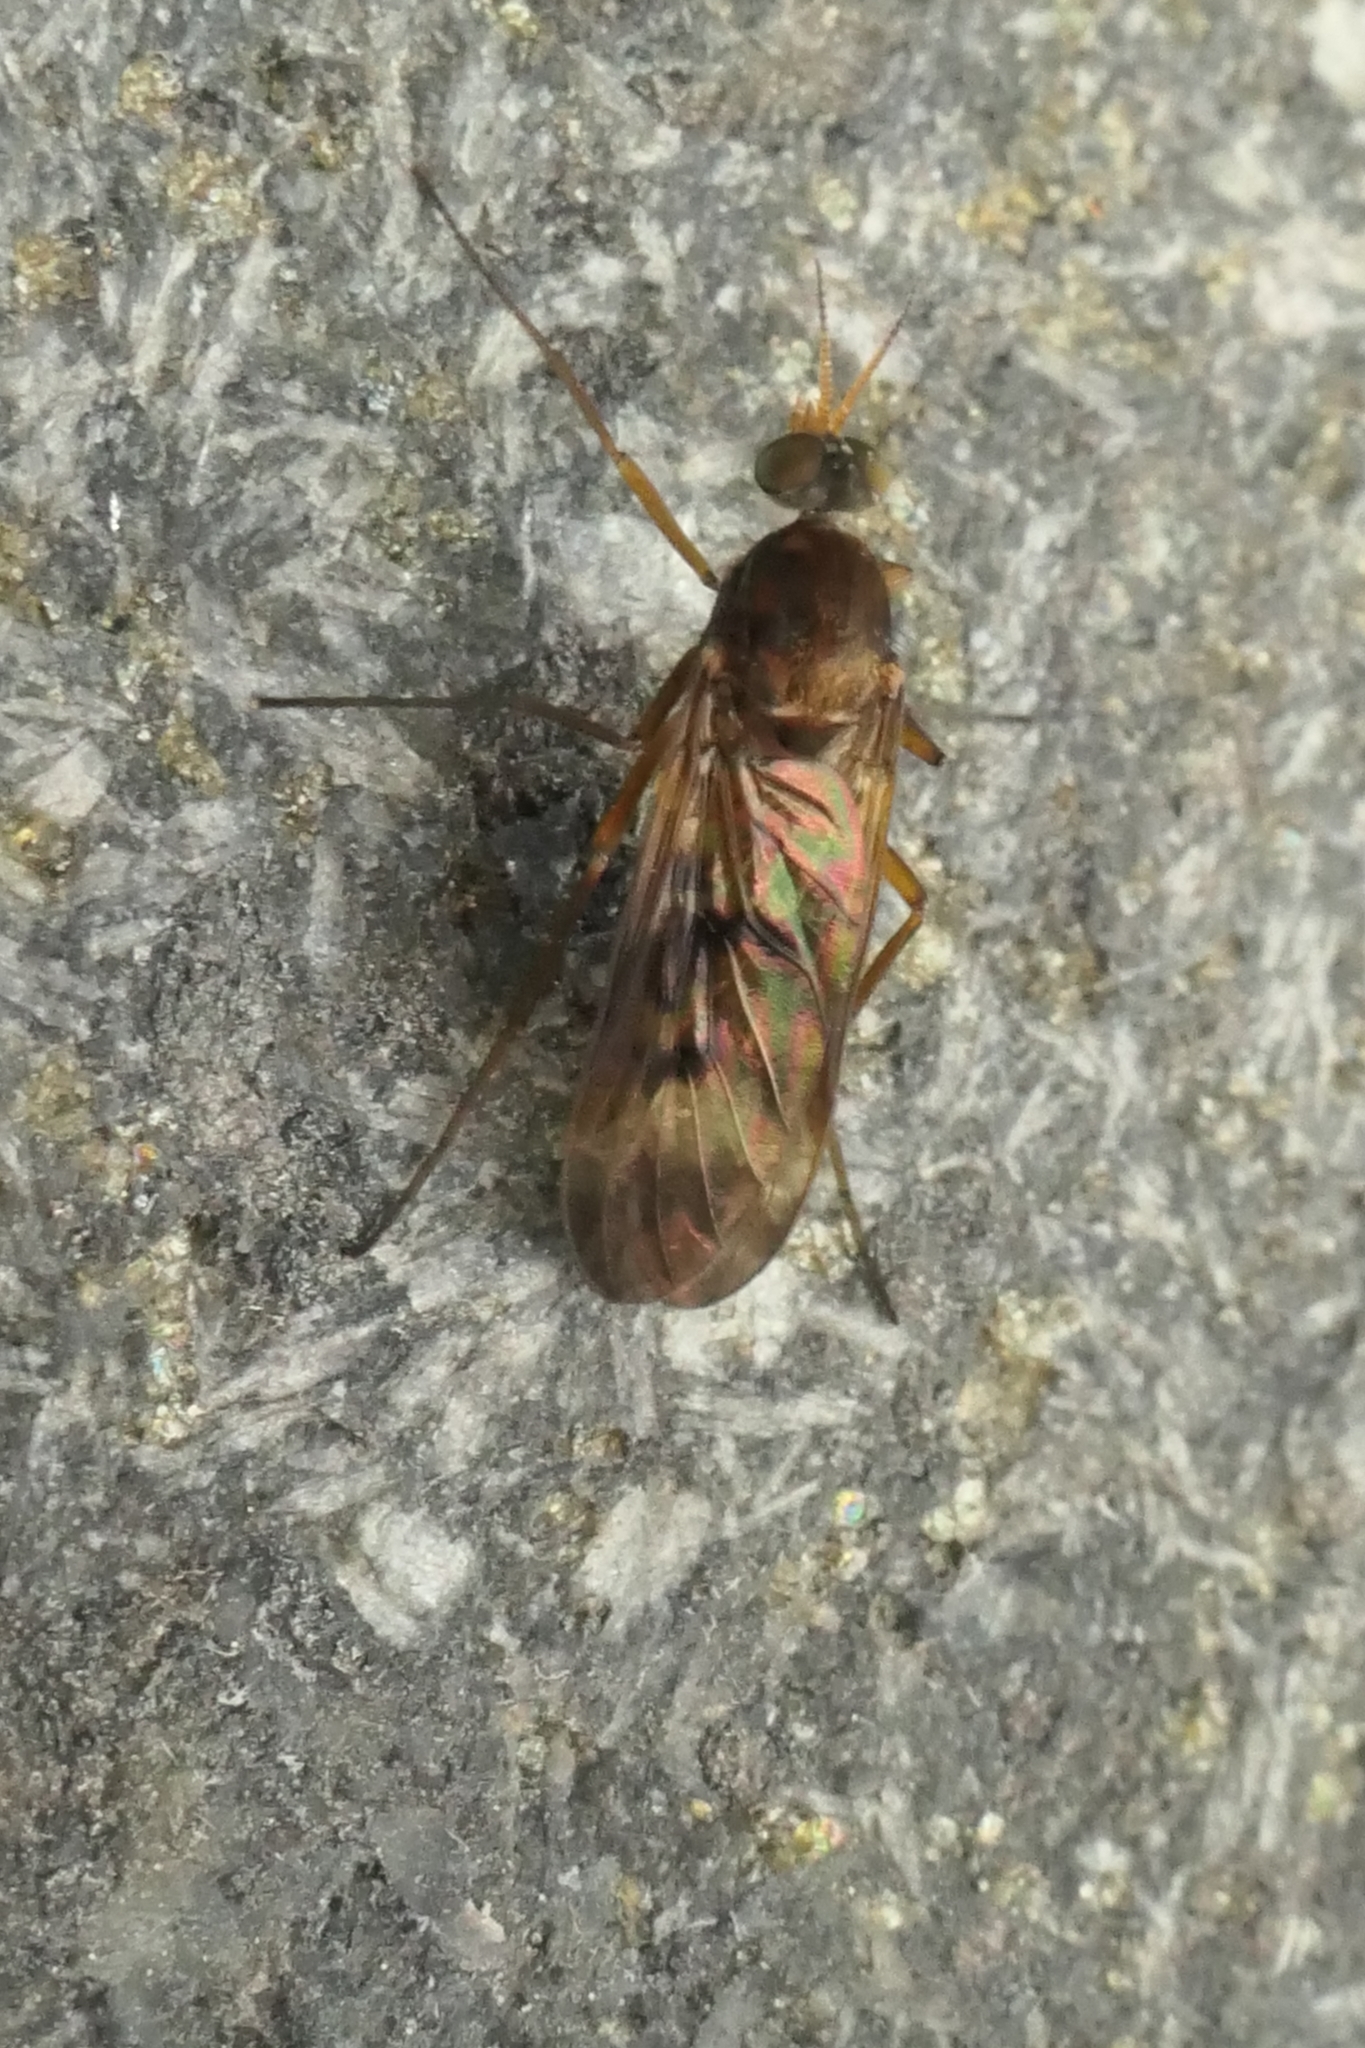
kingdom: Animalia
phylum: Arthropoda
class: Insecta
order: Diptera
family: Anisopodidae
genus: Sylvicola
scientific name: Sylvicola neozelandicus
